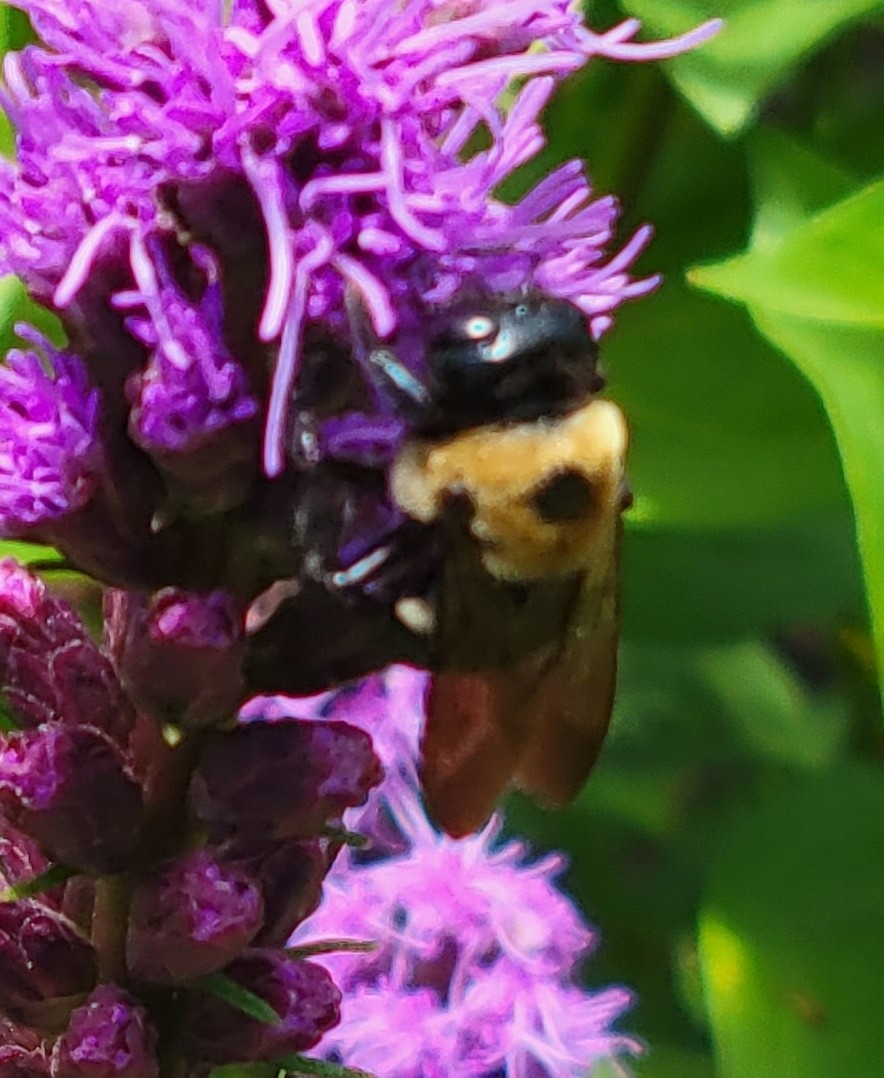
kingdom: Animalia
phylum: Arthropoda
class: Insecta
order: Hymenoptera
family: Apidae
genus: Xylocopa
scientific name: Xylocopa virginica
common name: Carpenter bee
